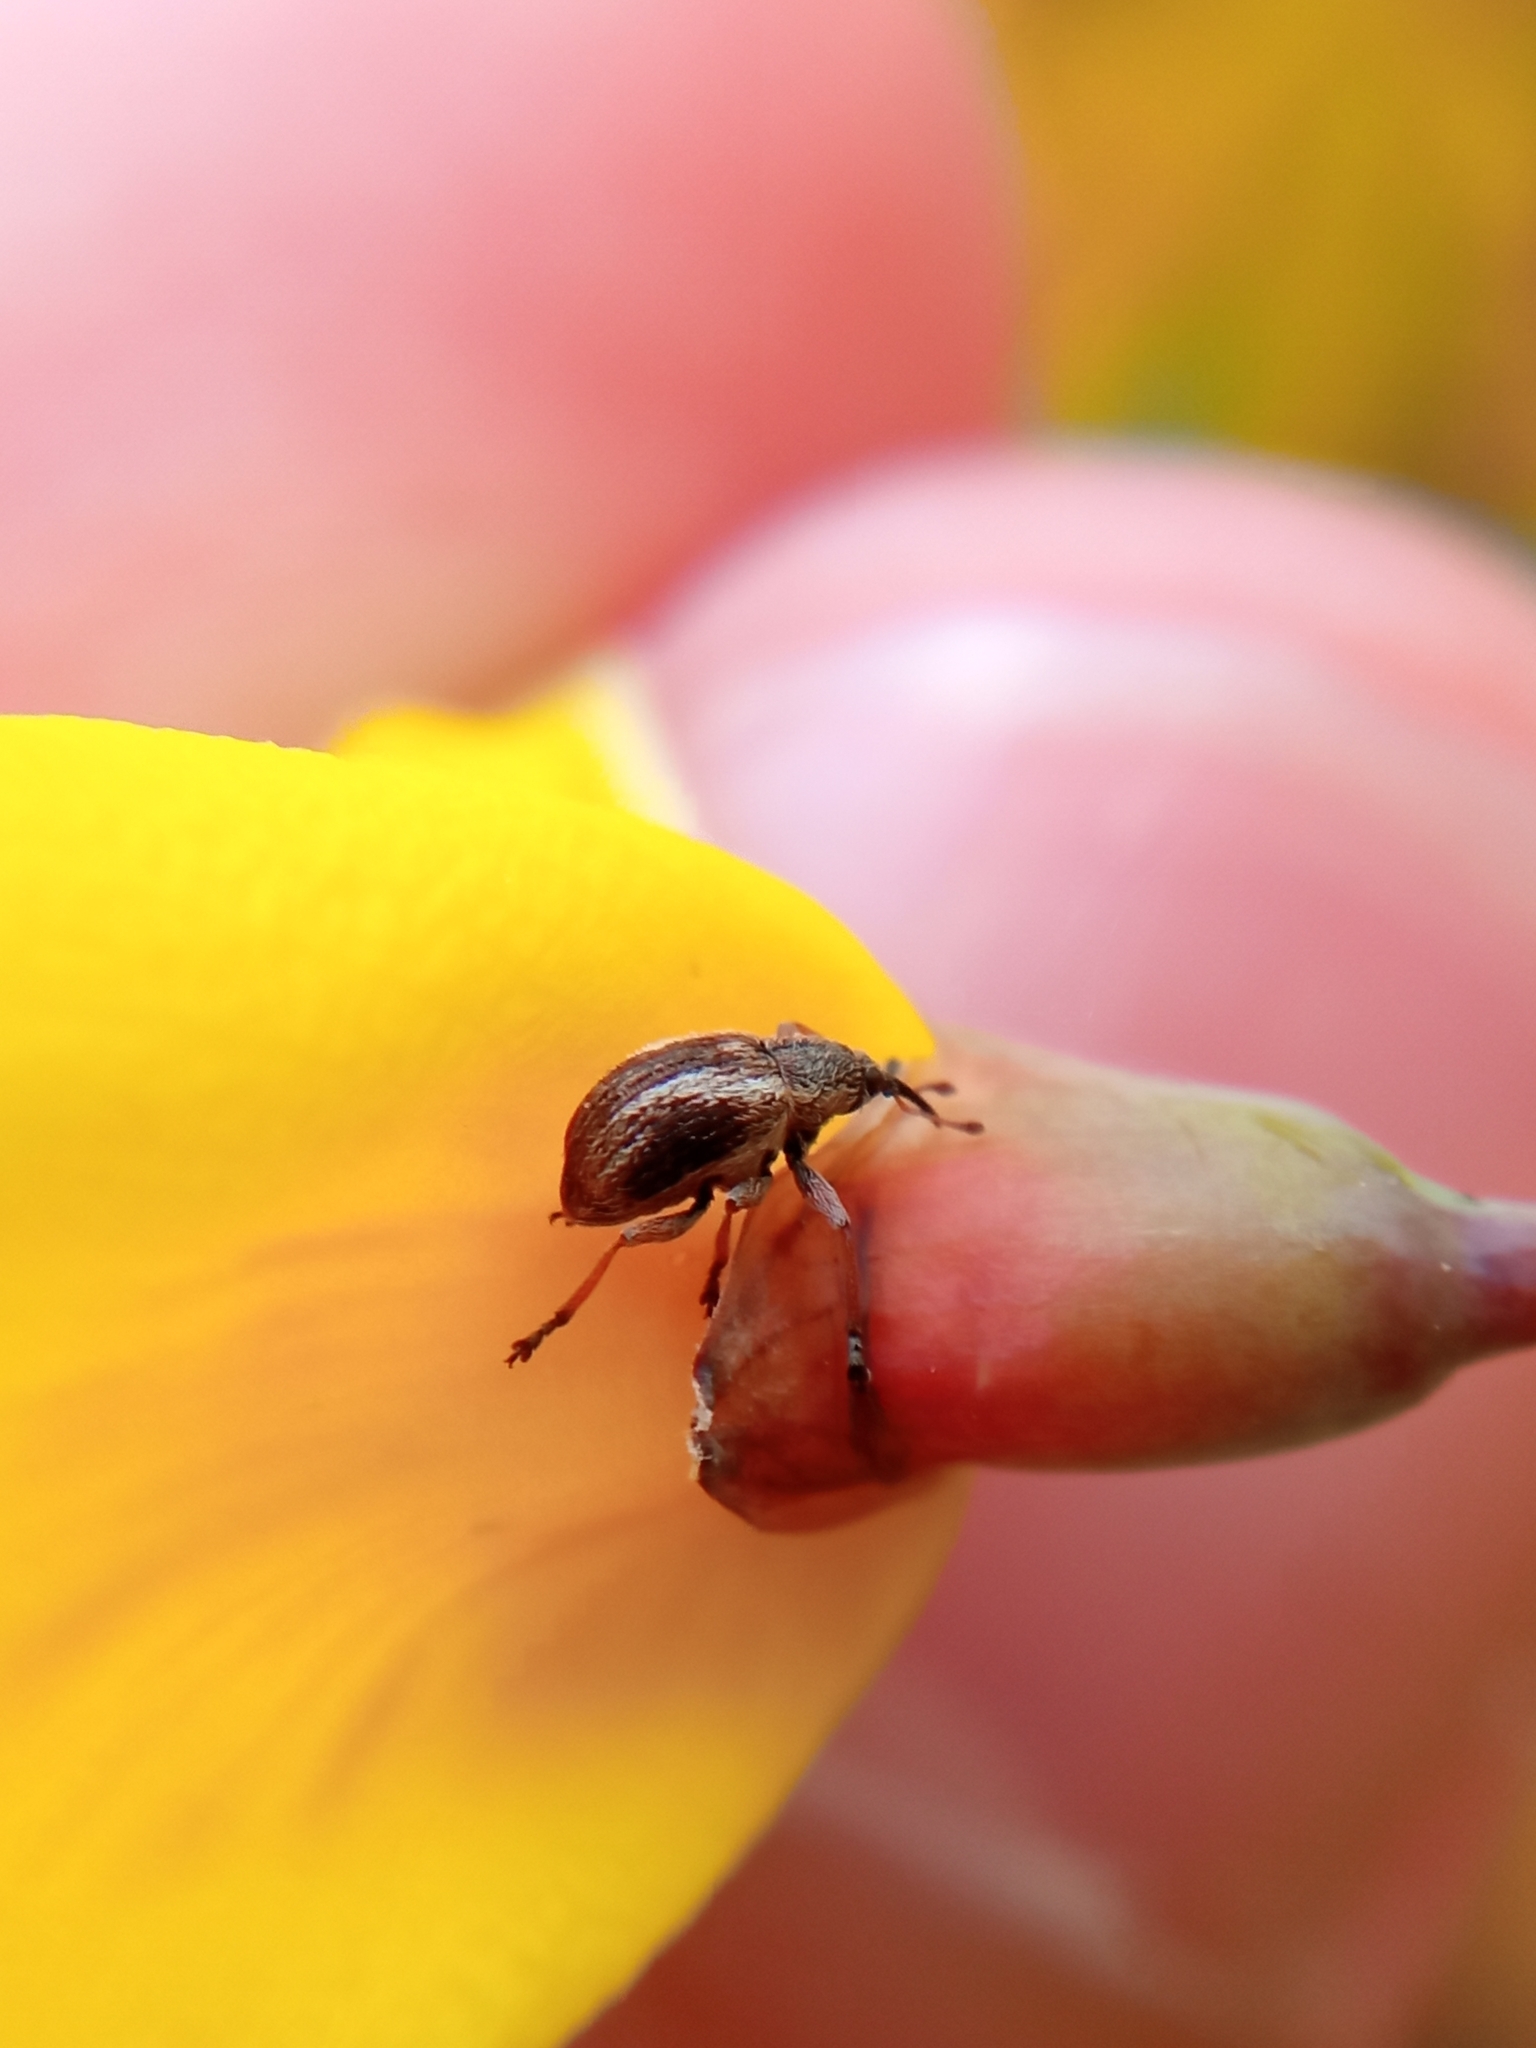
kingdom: Animalia
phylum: Arthropoda
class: Insecta
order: Coleoptera
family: Brentidae
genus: Exapion
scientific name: Exapion fuscirostre
